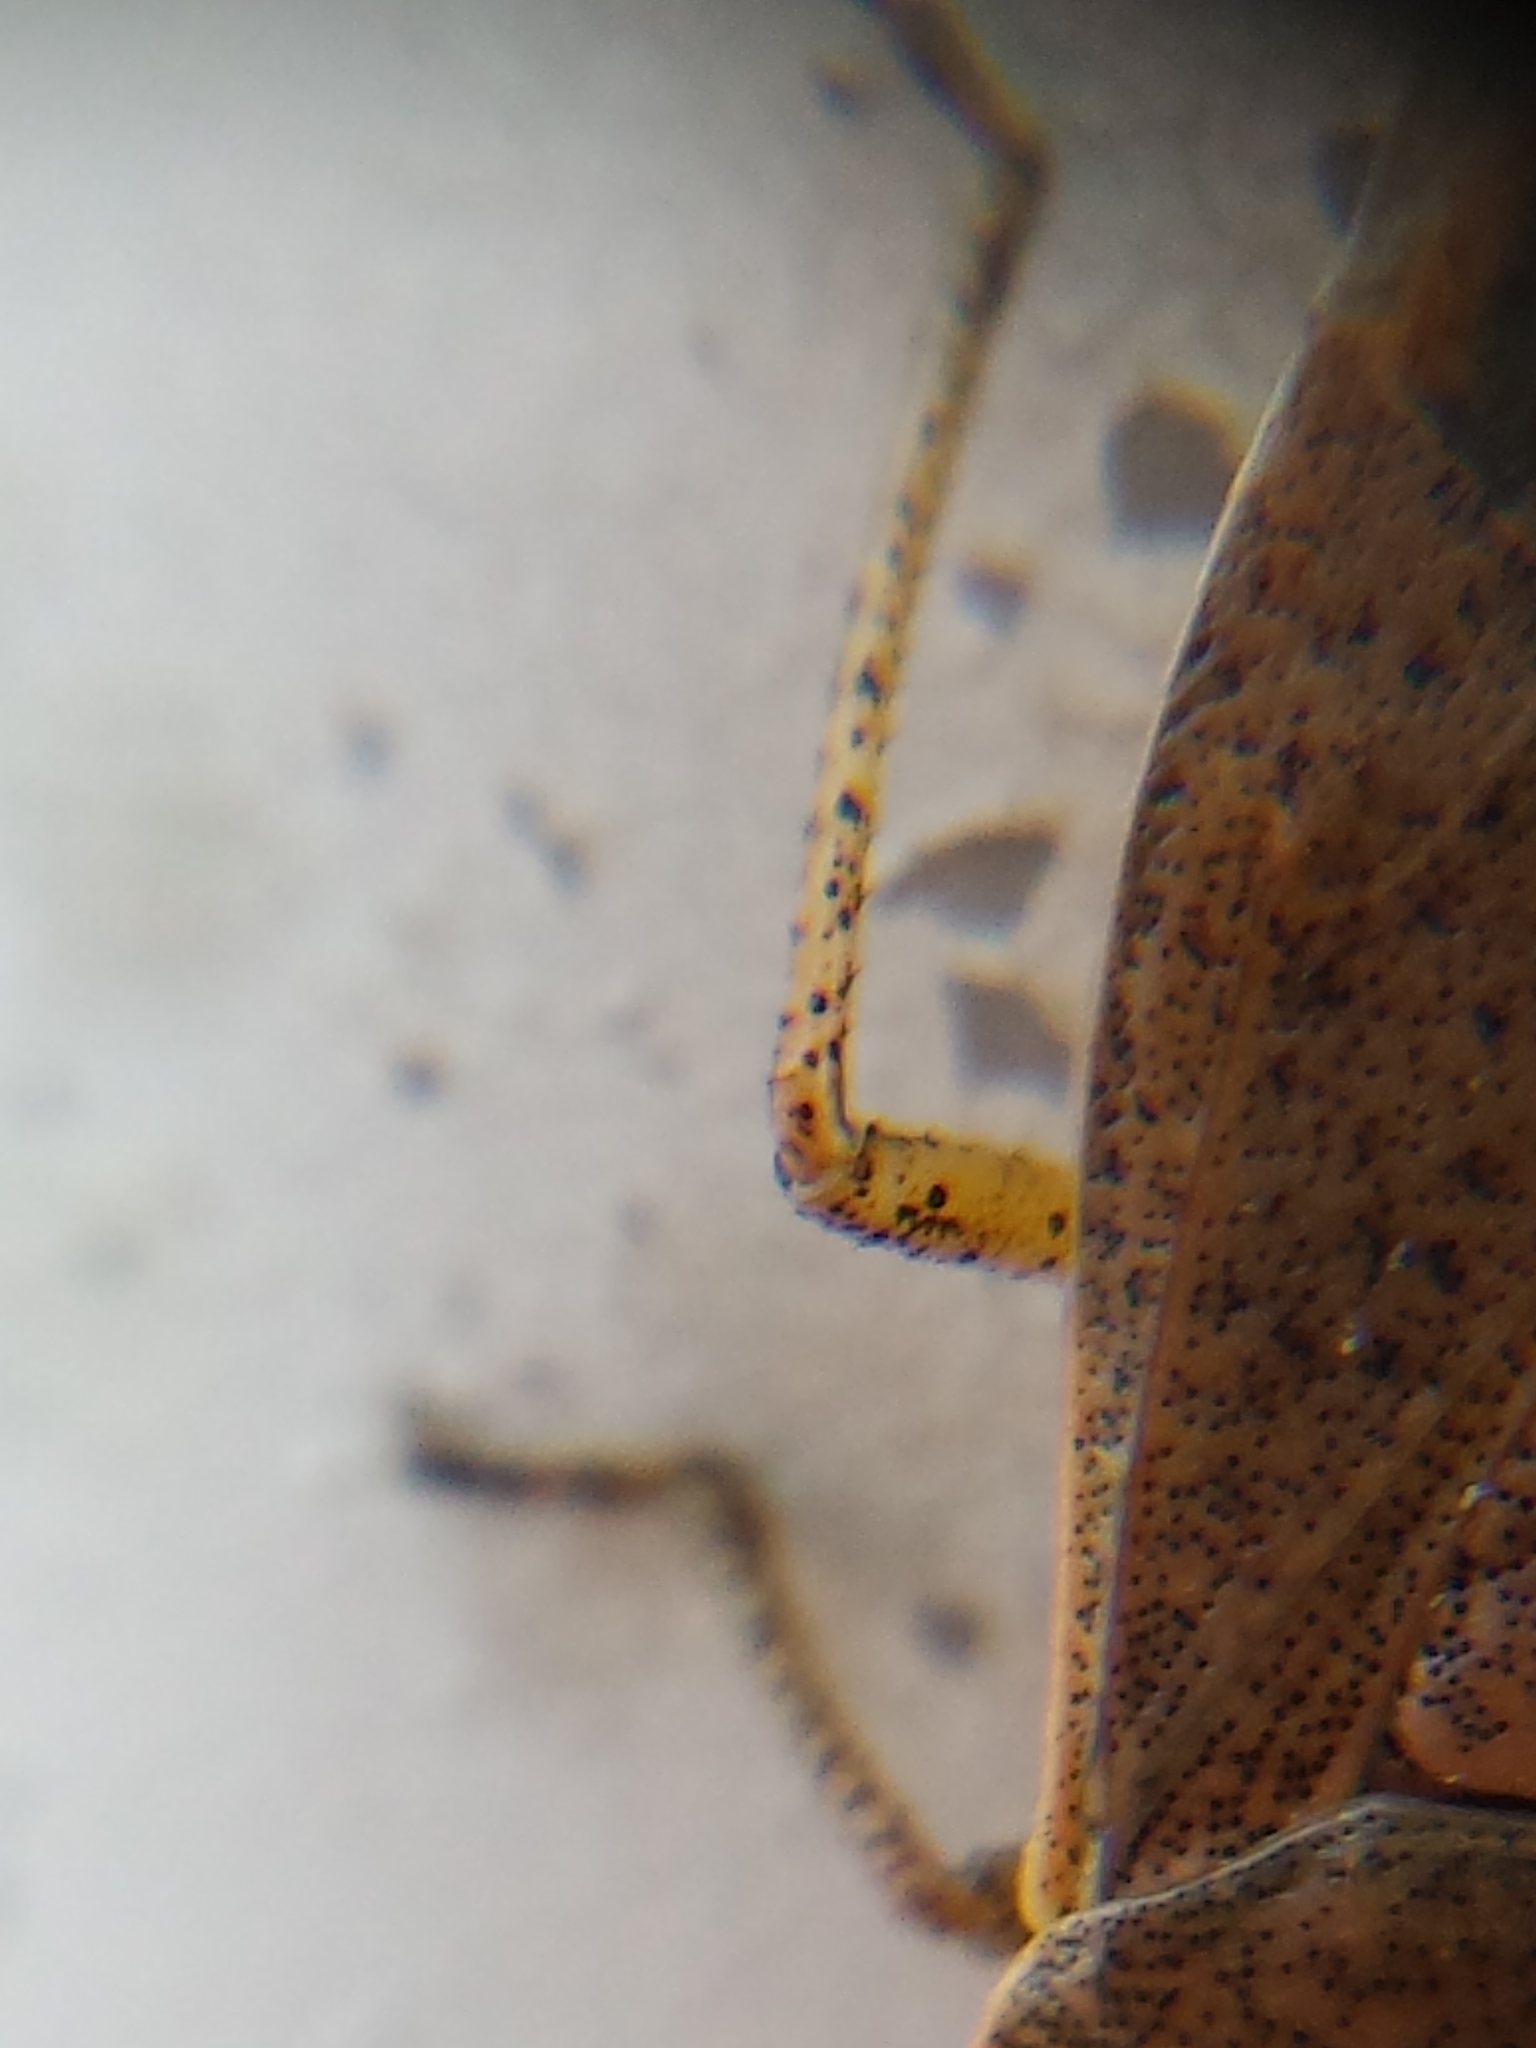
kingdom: Animalia
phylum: Arthropoda
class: Insecta
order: Hemiptera
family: Pentatomidae
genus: Euschistus
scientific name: Euschistus variolarius
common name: Onespotted stink bug
